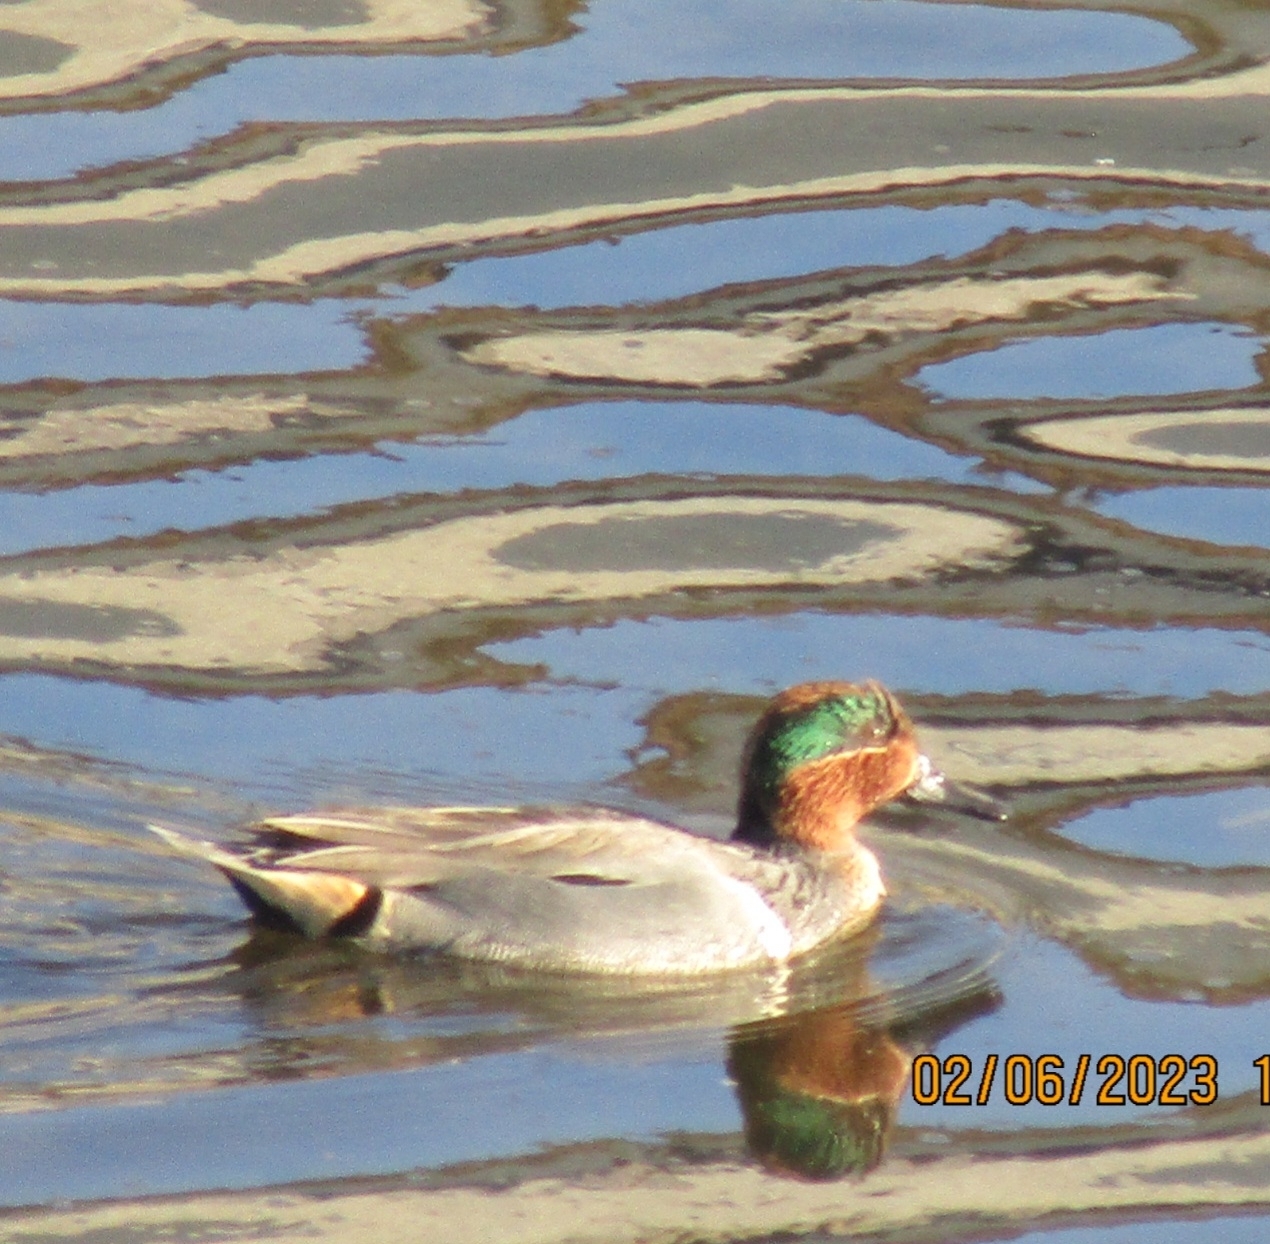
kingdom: Animalia
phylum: Chordata
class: Aves
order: Anseriformes
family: Anatidae
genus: Anas
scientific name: Anas crecca
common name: Eurasian teal
